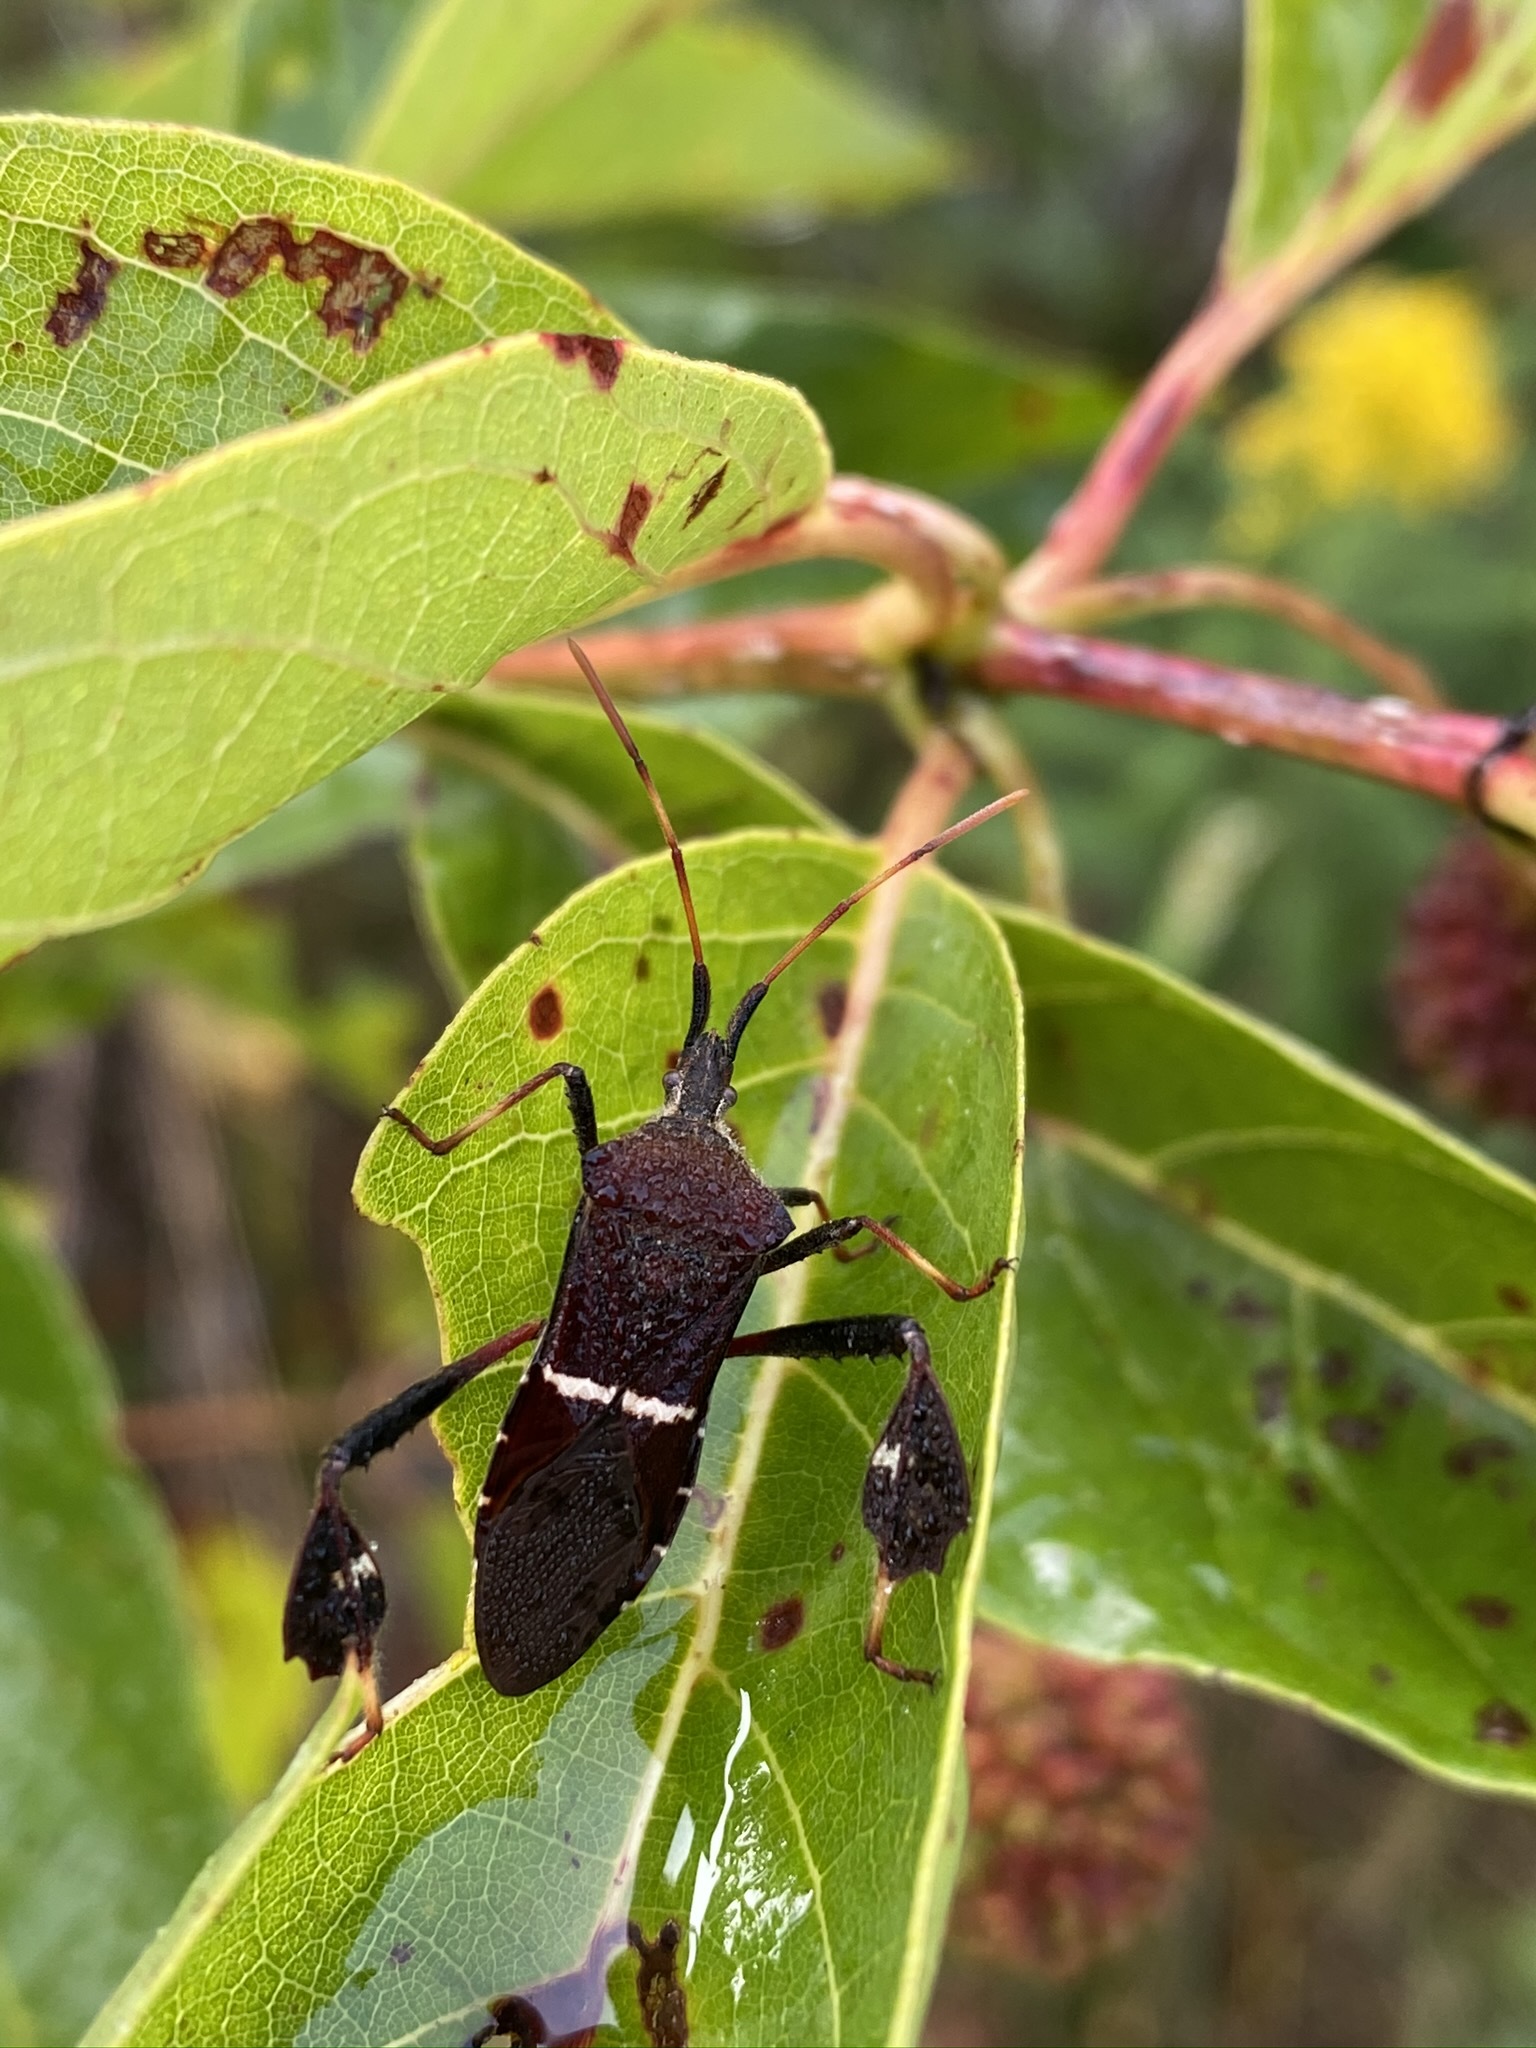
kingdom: Animalia
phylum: Arthropoda
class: Insecta
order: Hemiptera
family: Coreidae
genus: Leptoglossus
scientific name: Leptoglossus phyllopus
